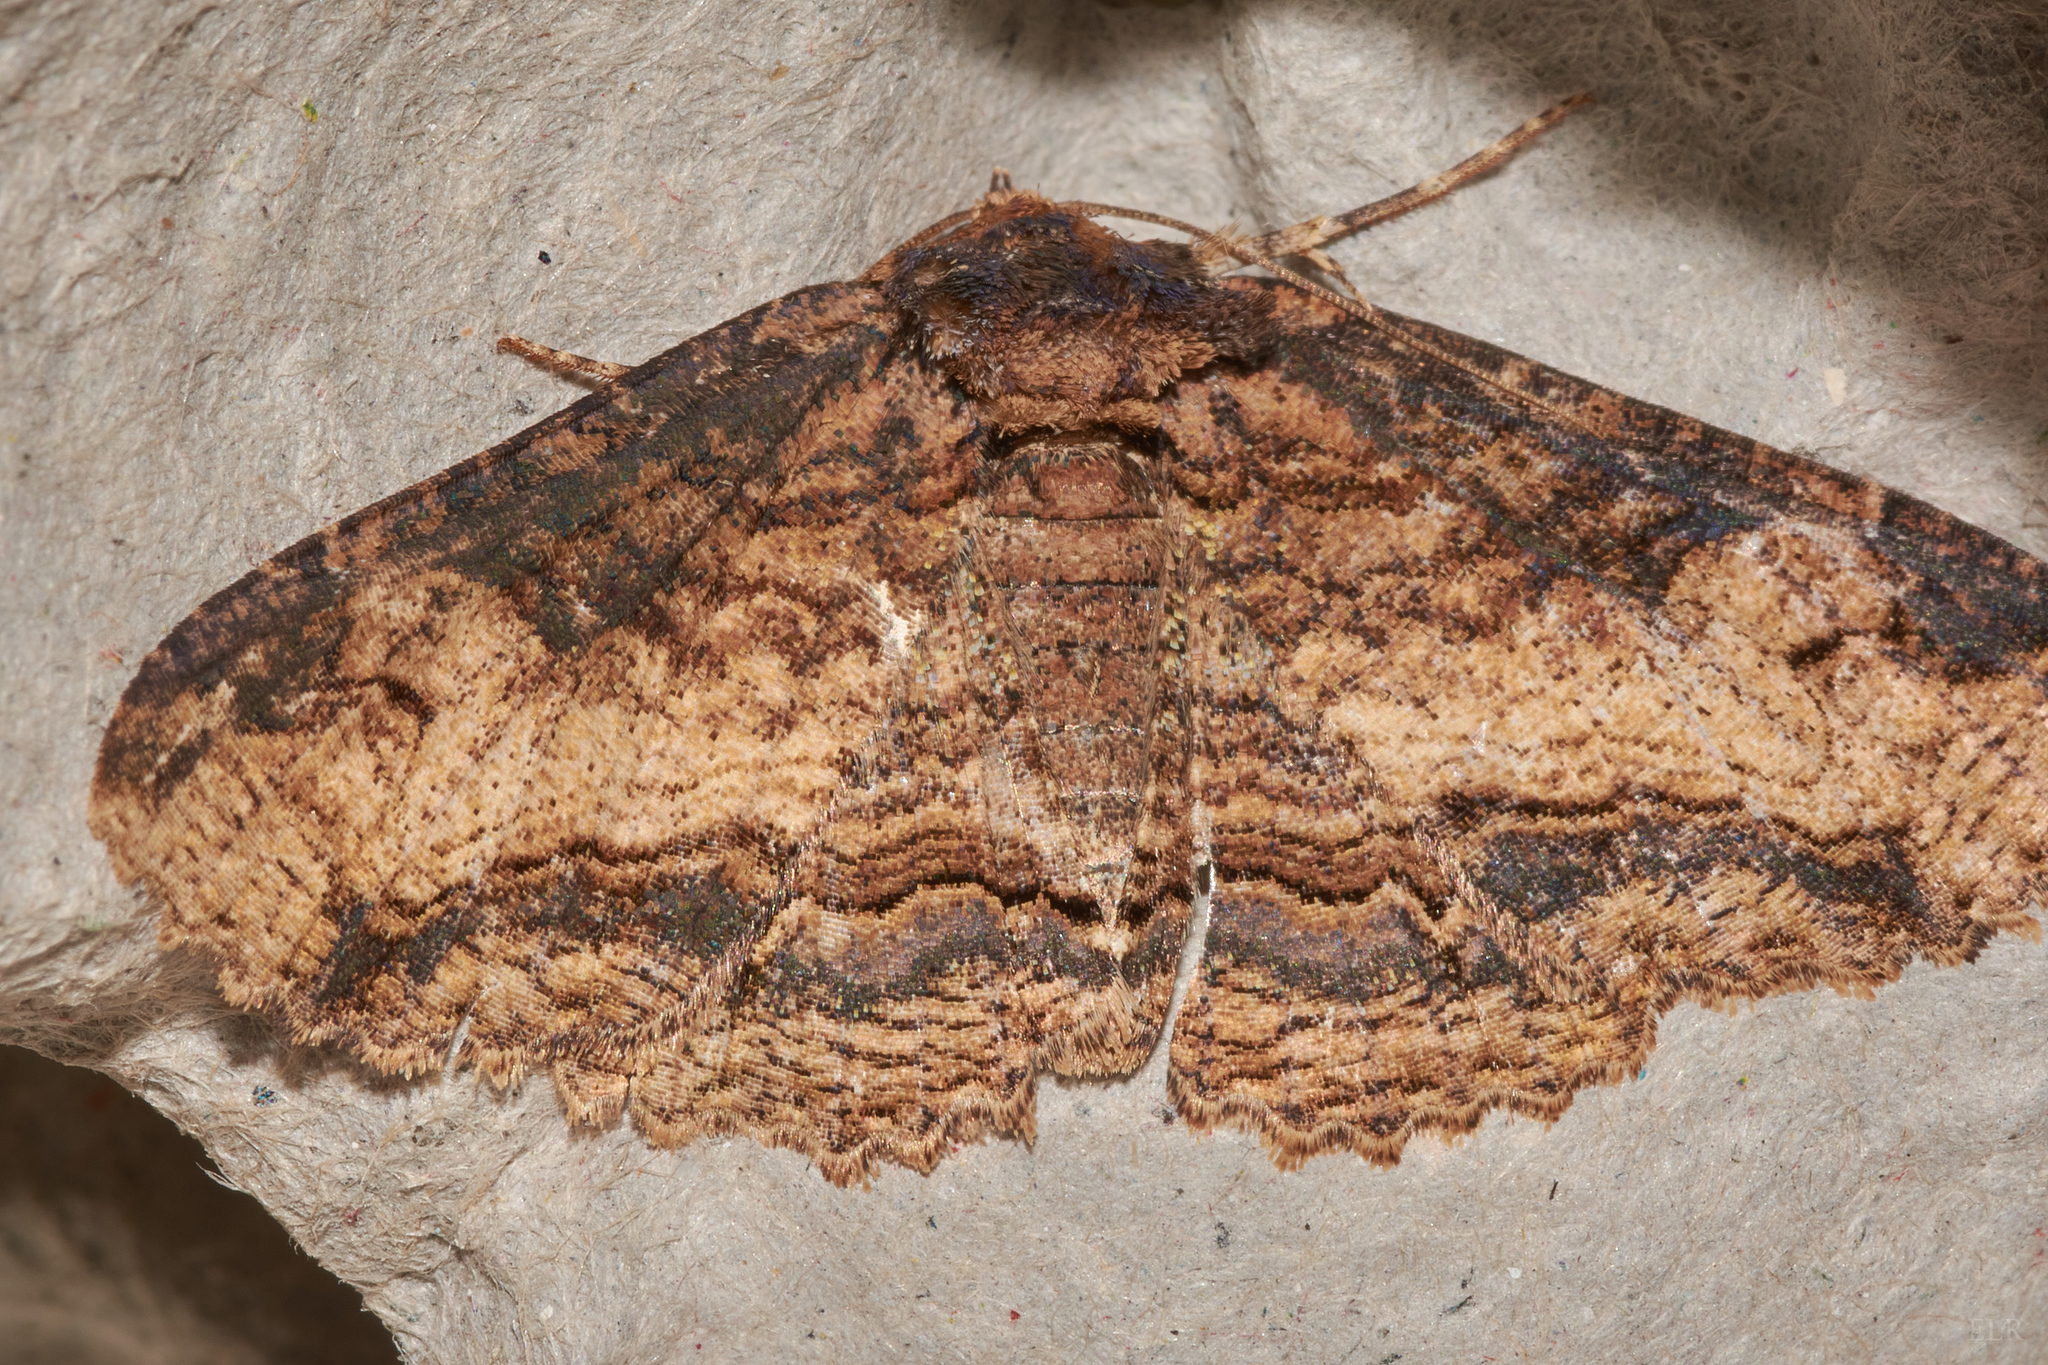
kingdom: Animalia
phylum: Arthropoda
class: Insecta
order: Lepidoptera
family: Erebidae
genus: Zale
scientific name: Zale minerea
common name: Colorful zale moth
